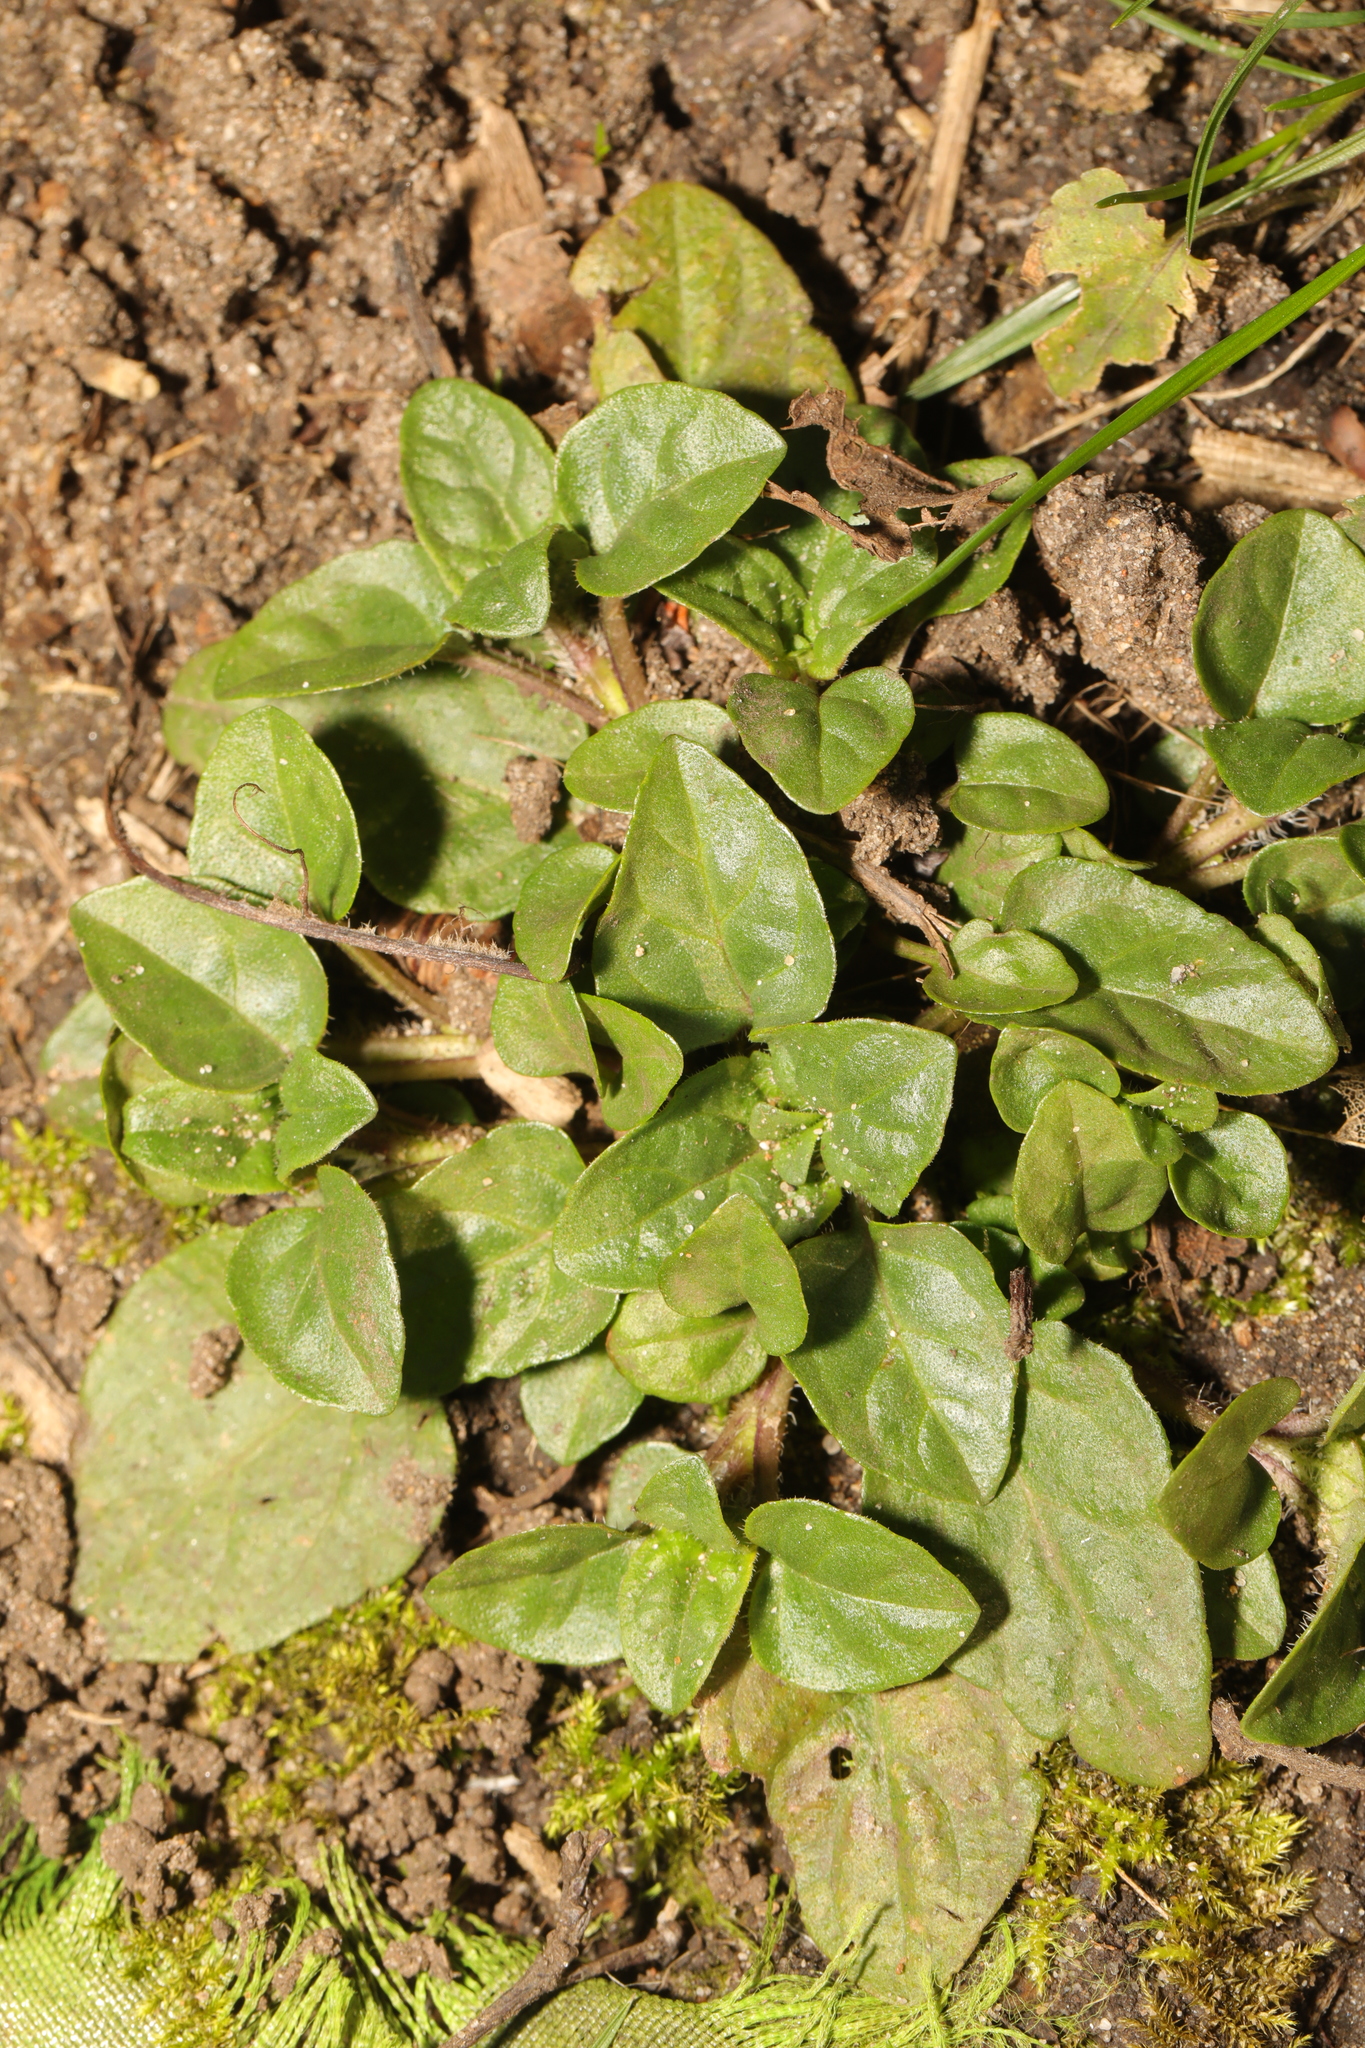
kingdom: Plantae
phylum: Tracheophyta
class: Magnoliopsida
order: Lamiales
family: Lamiaceae
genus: Prunella
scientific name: Prunella vulgaris
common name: Heal-all
